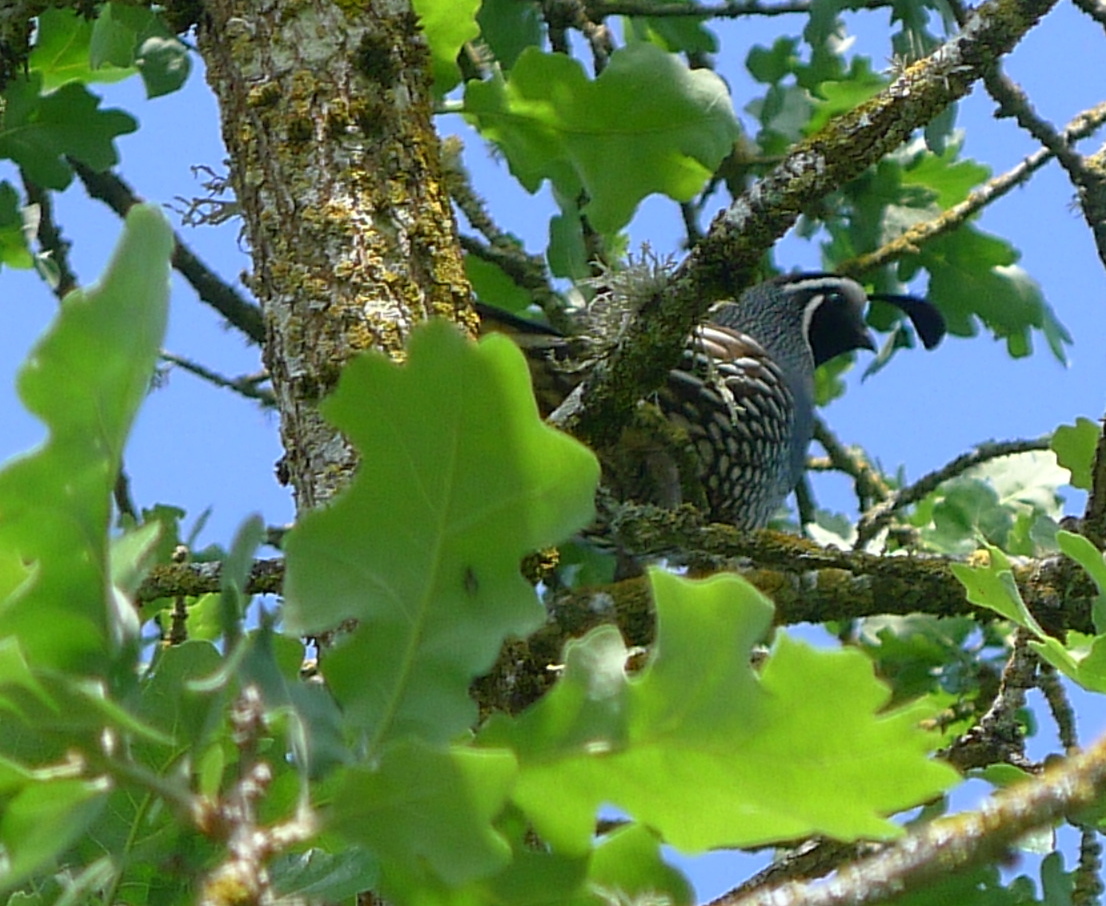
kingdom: Animalia
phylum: Chordata
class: Aves
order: Galliformes
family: Odontophoridae
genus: Callipepla
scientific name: Callipepla californica
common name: California quail
